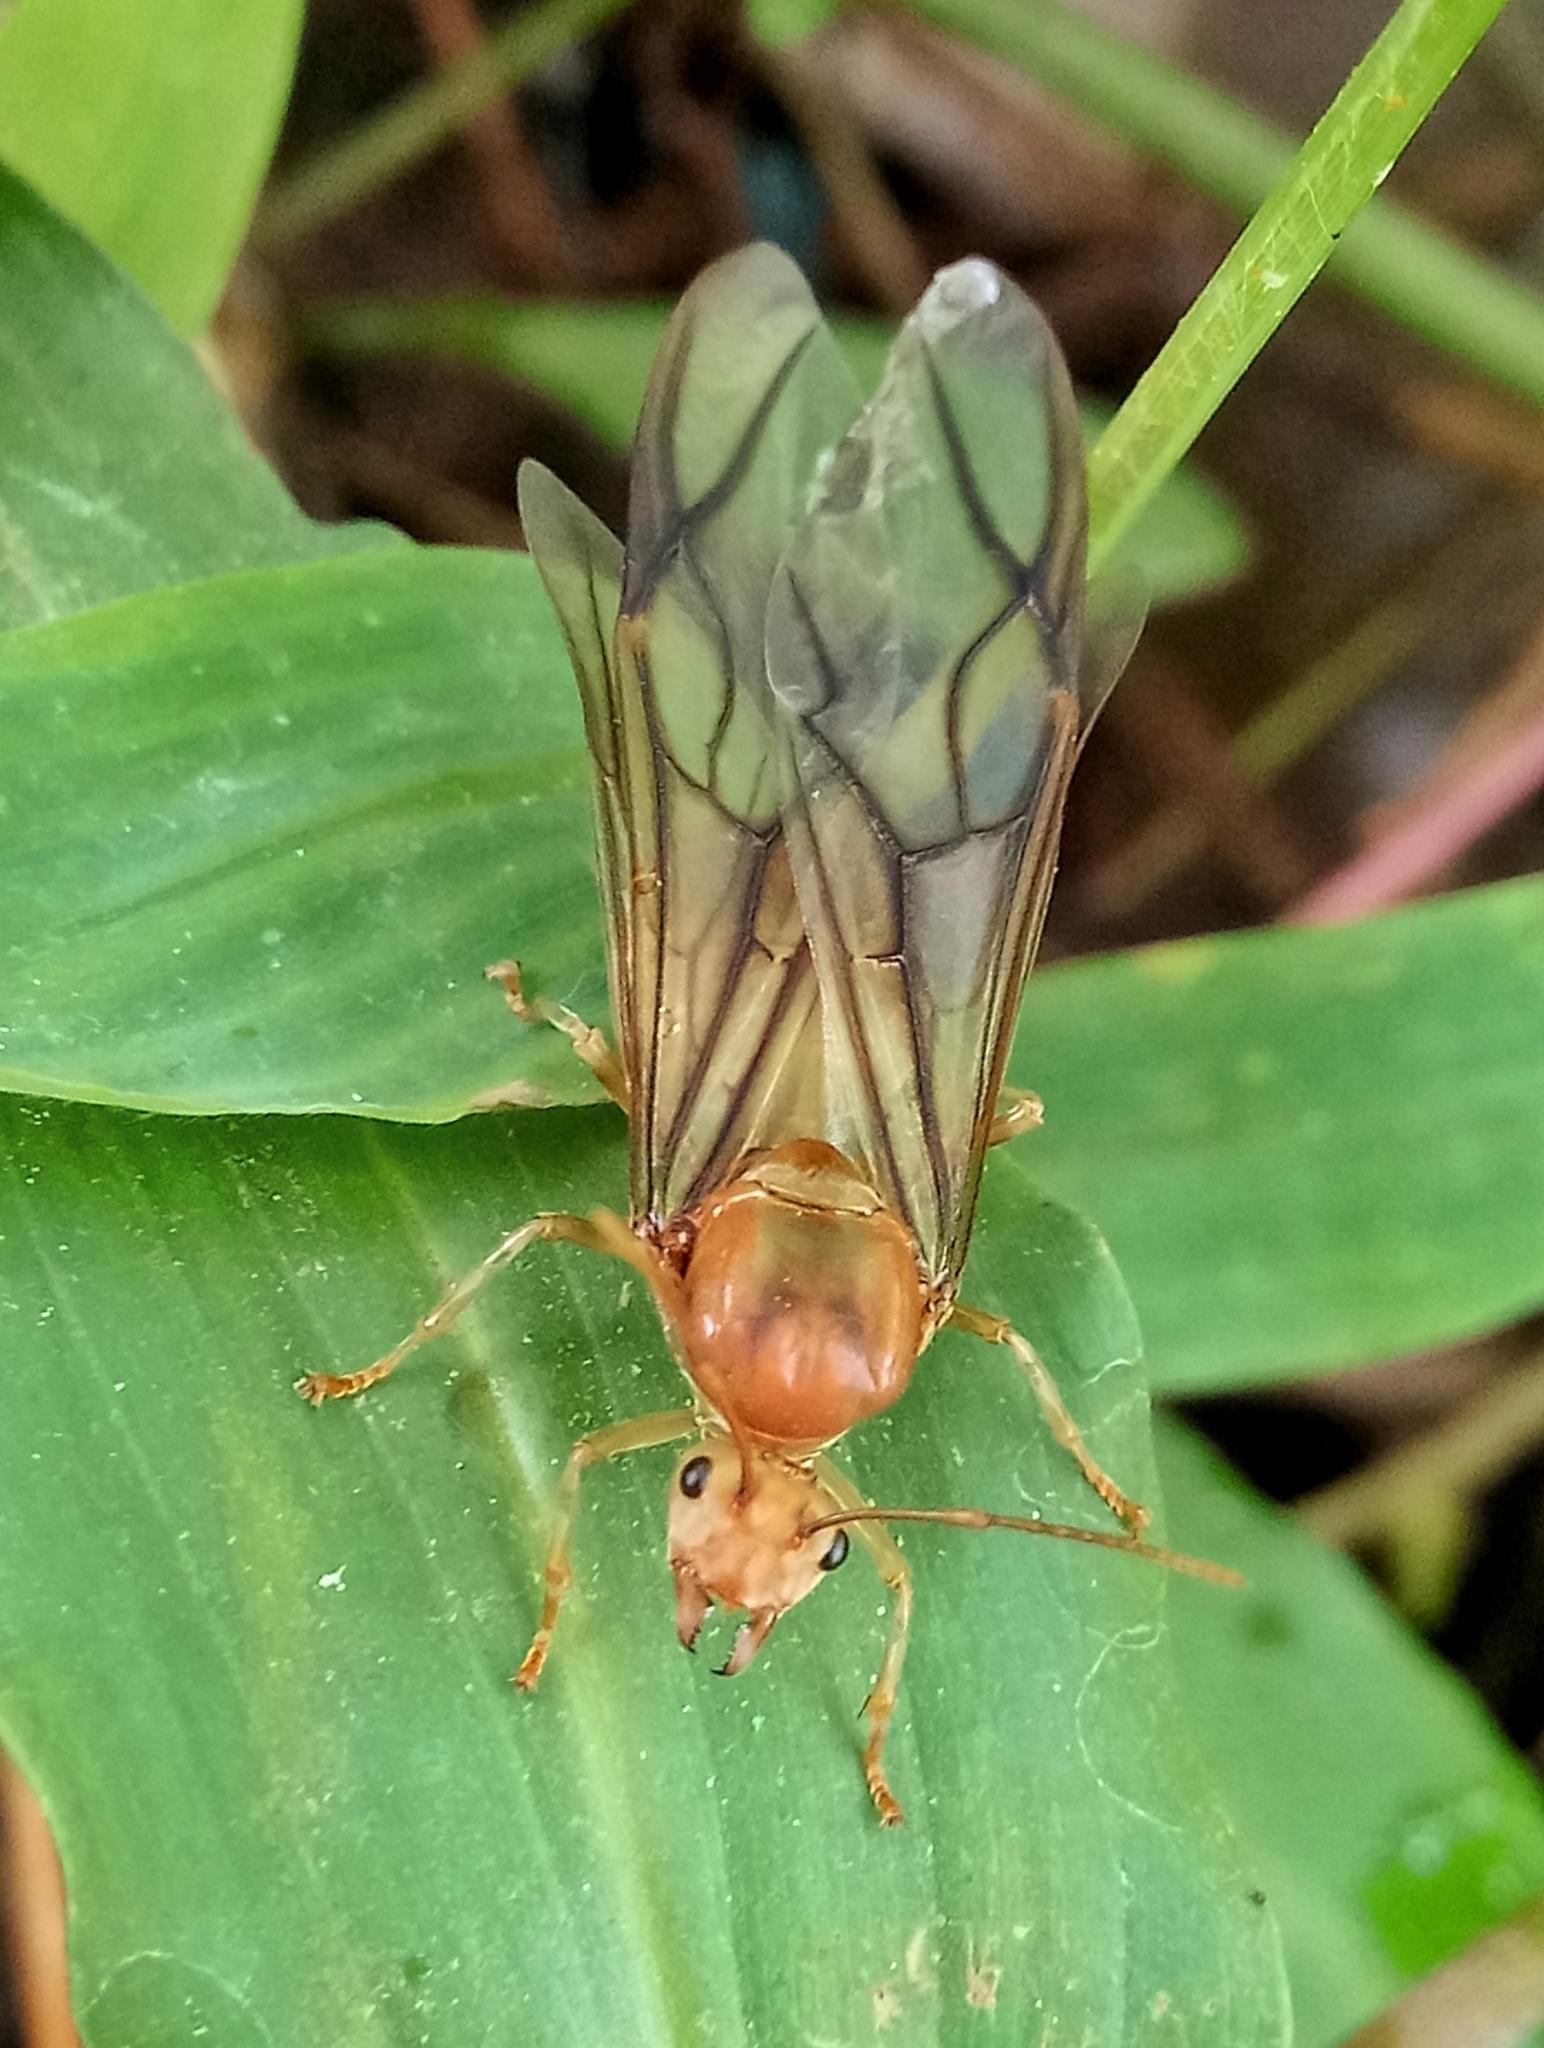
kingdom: Animalia
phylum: Arthropoda
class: Insecta
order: Hymenoptera
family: Formicidae
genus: Oecophylla
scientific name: Oecophylla smaragdina
